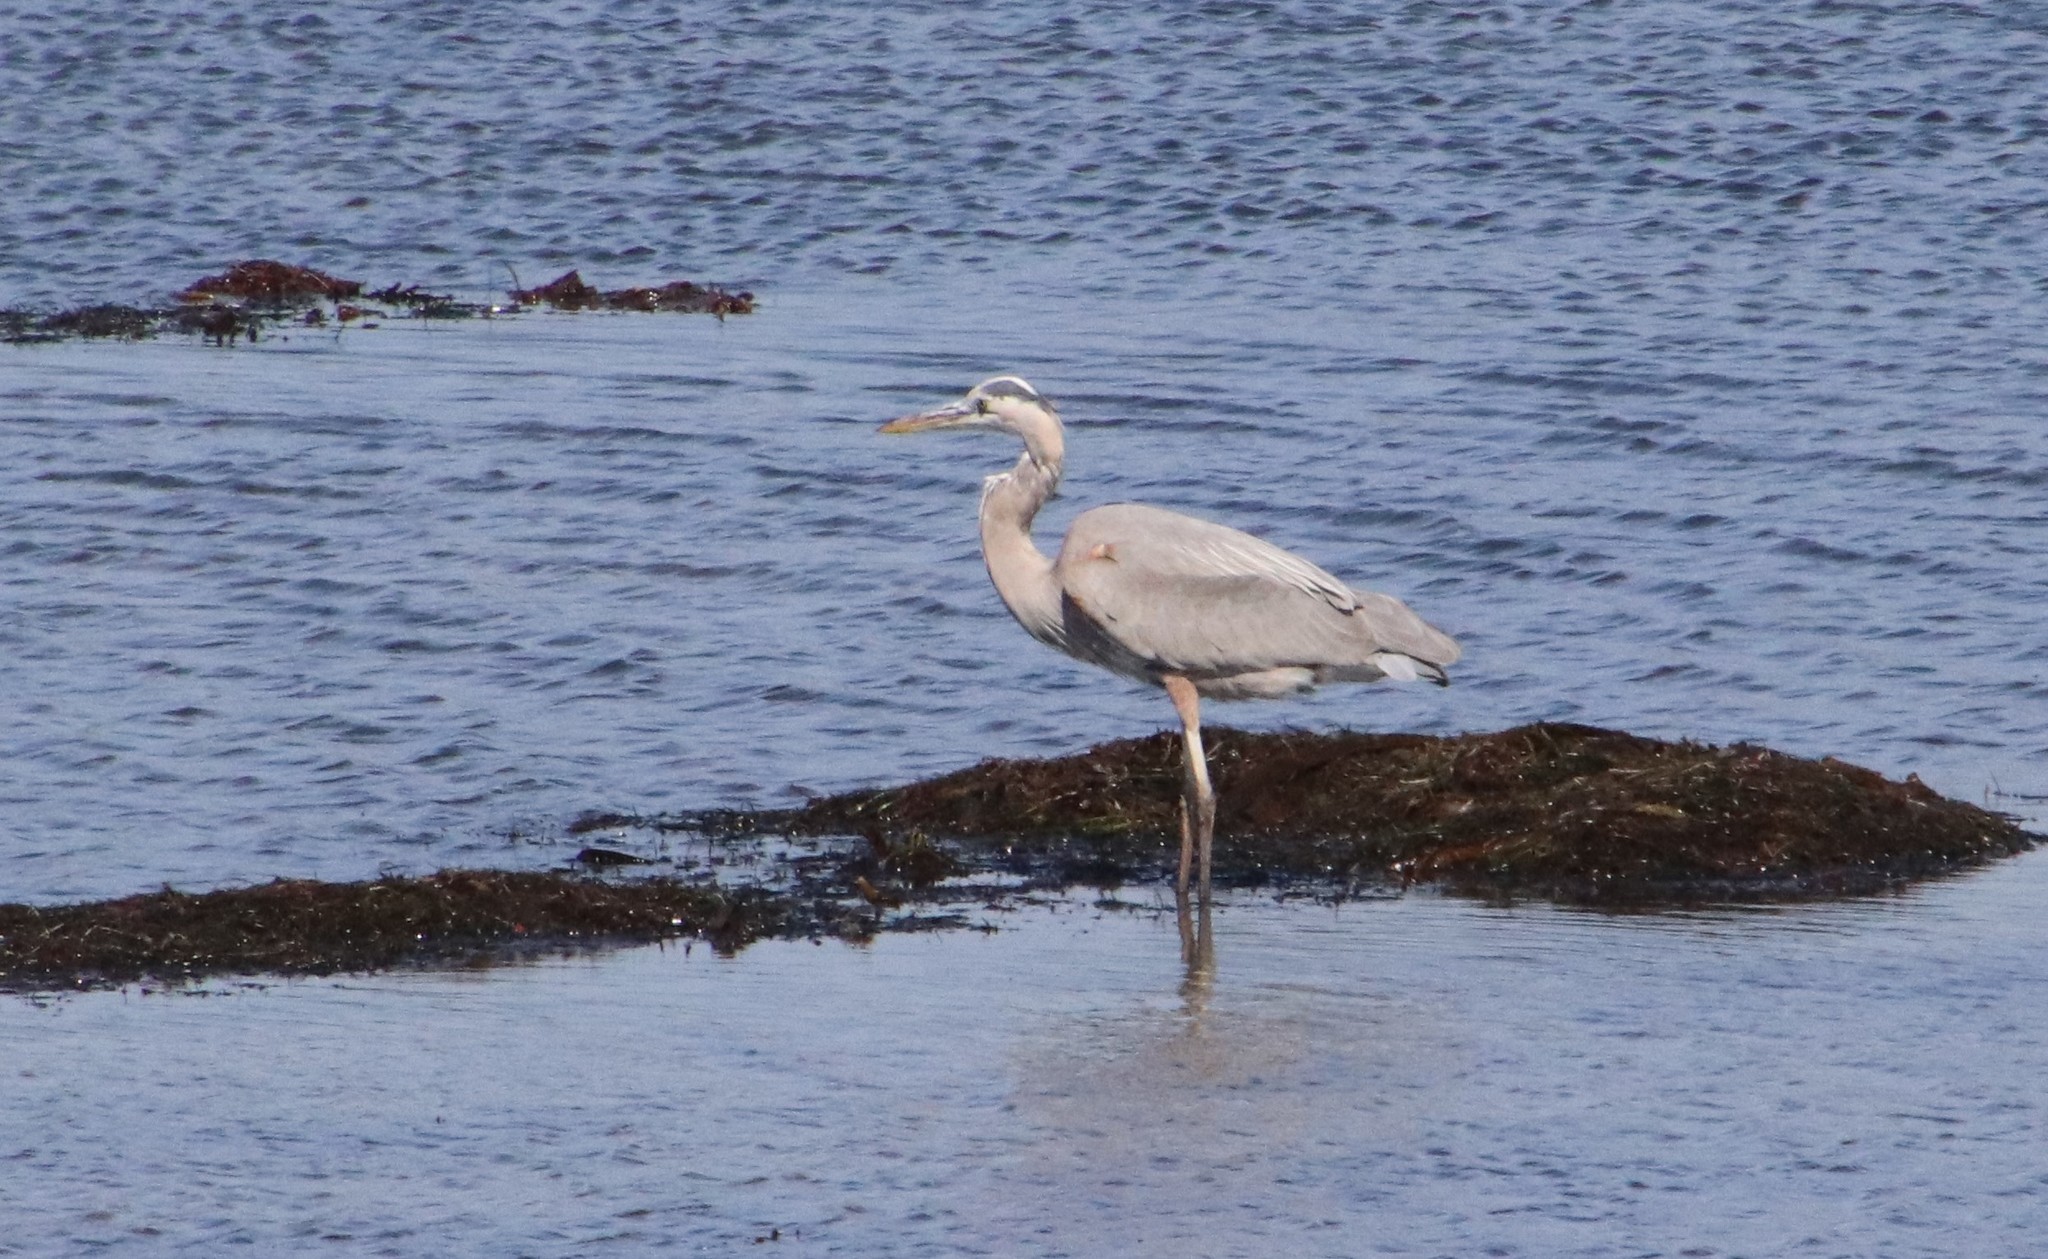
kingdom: Animalia
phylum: Chordata
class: Aves
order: Pelecaniformes
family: Ardeidae
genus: Ardea
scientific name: Ardea herodias
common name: Great blue heron
